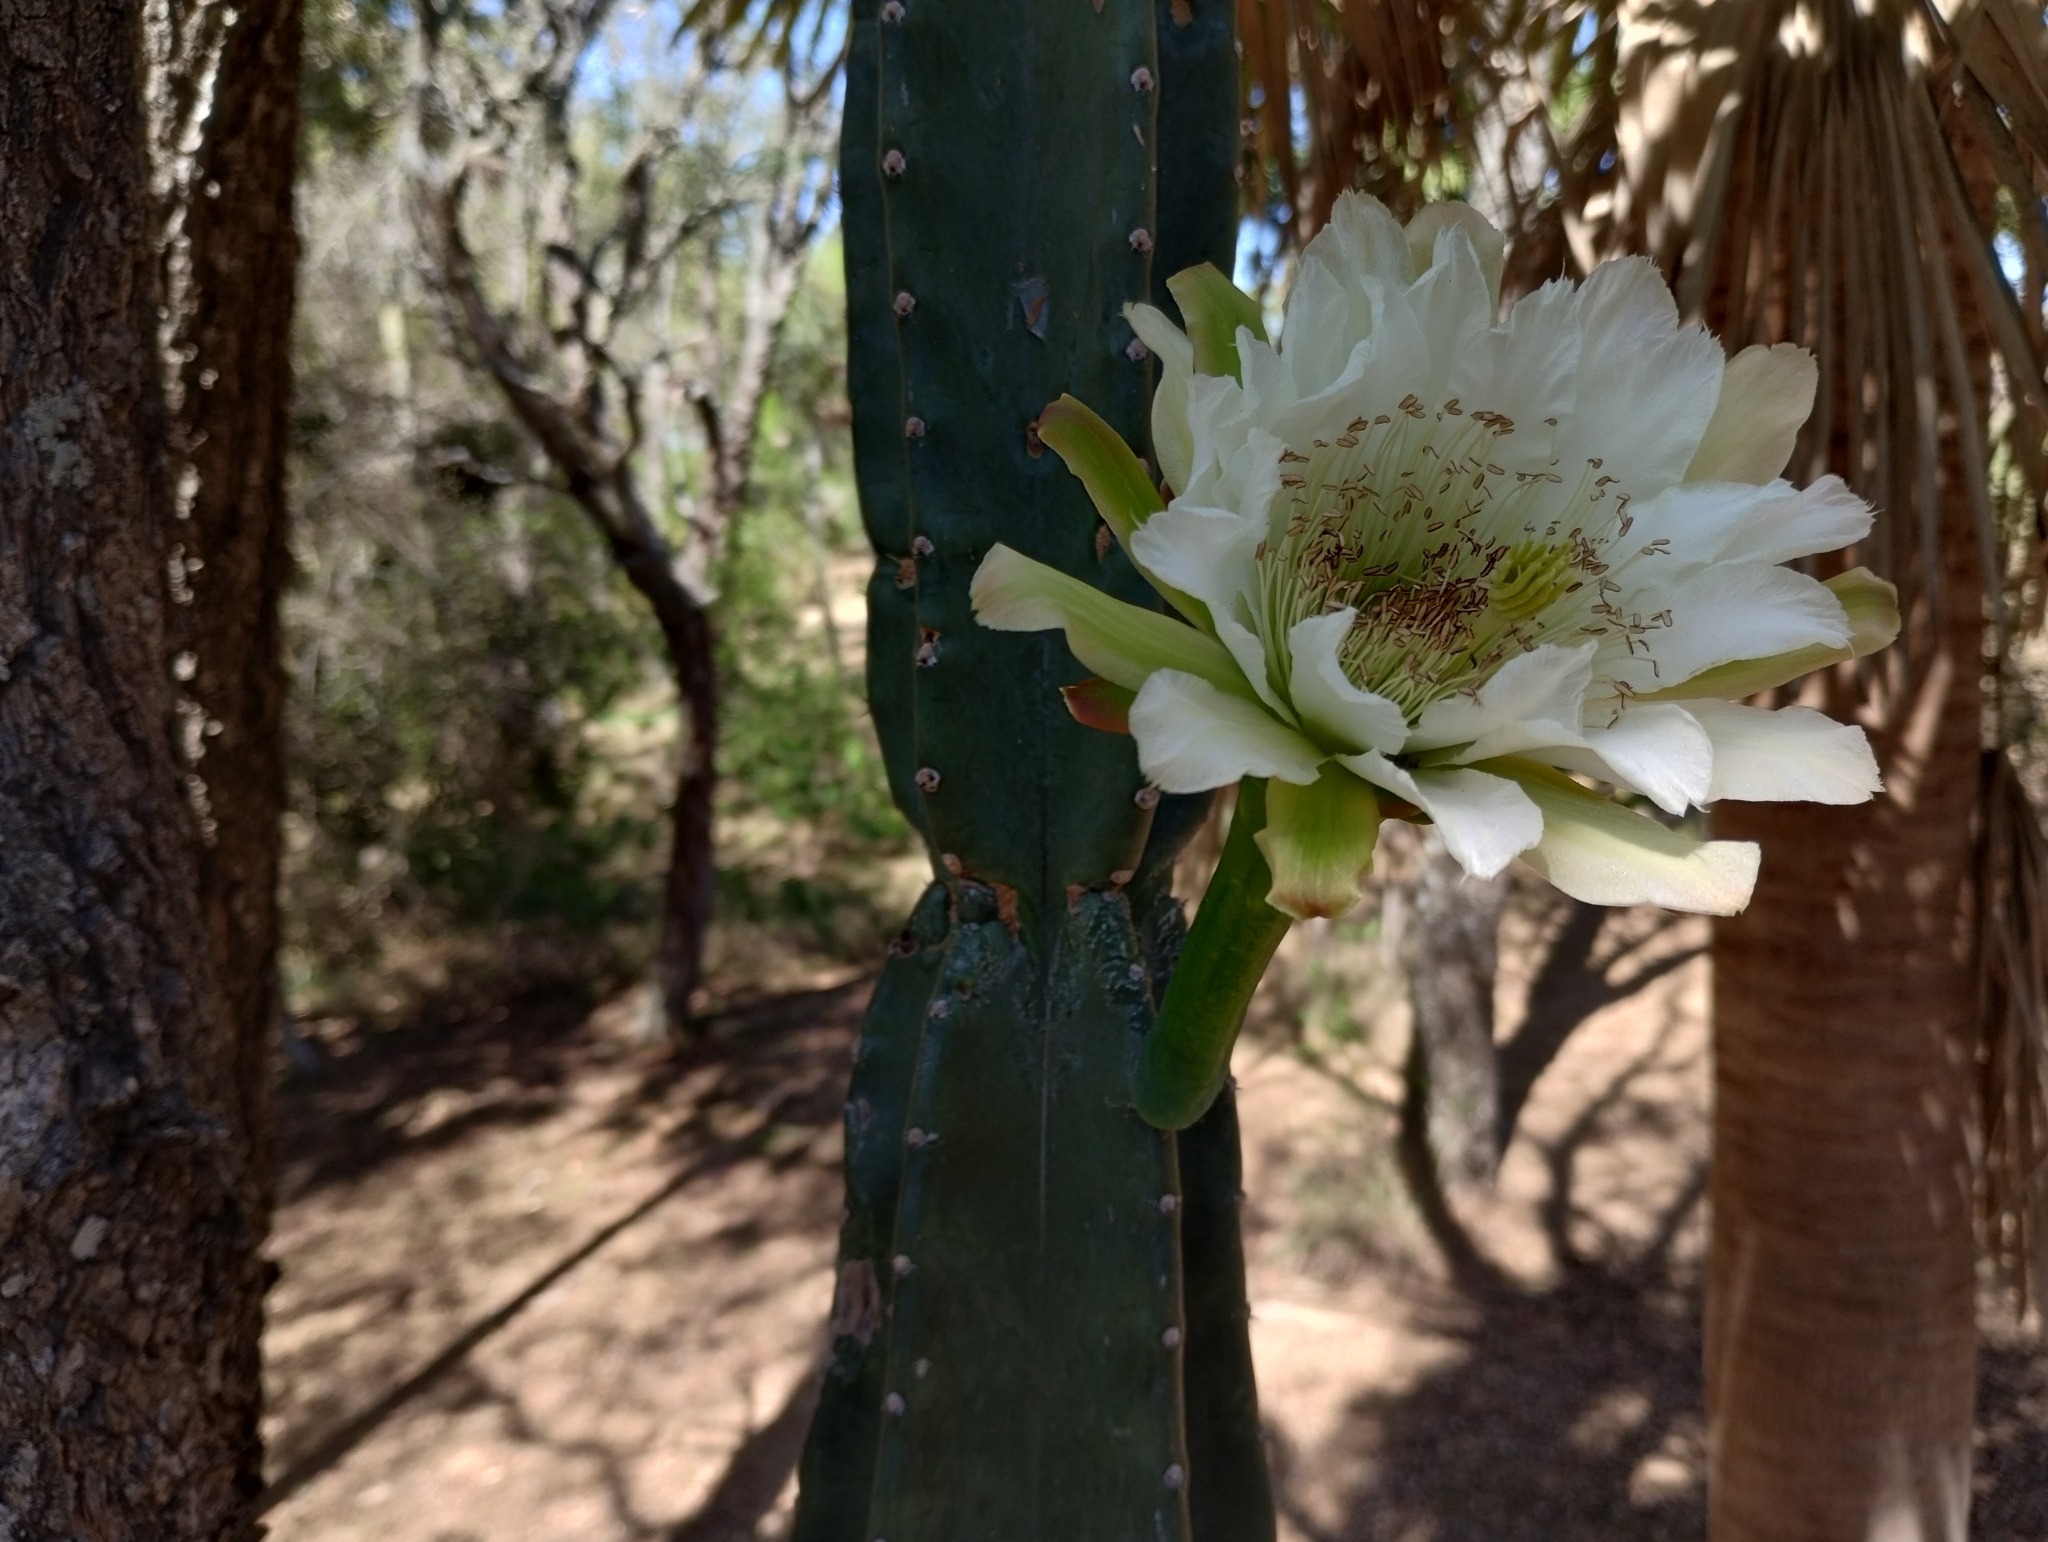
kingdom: Plantae
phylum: Tracheophyta
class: Magnoliopsida
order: Caryophyllales
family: Cactaceae
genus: Cereus
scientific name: Cereus stenogonus
